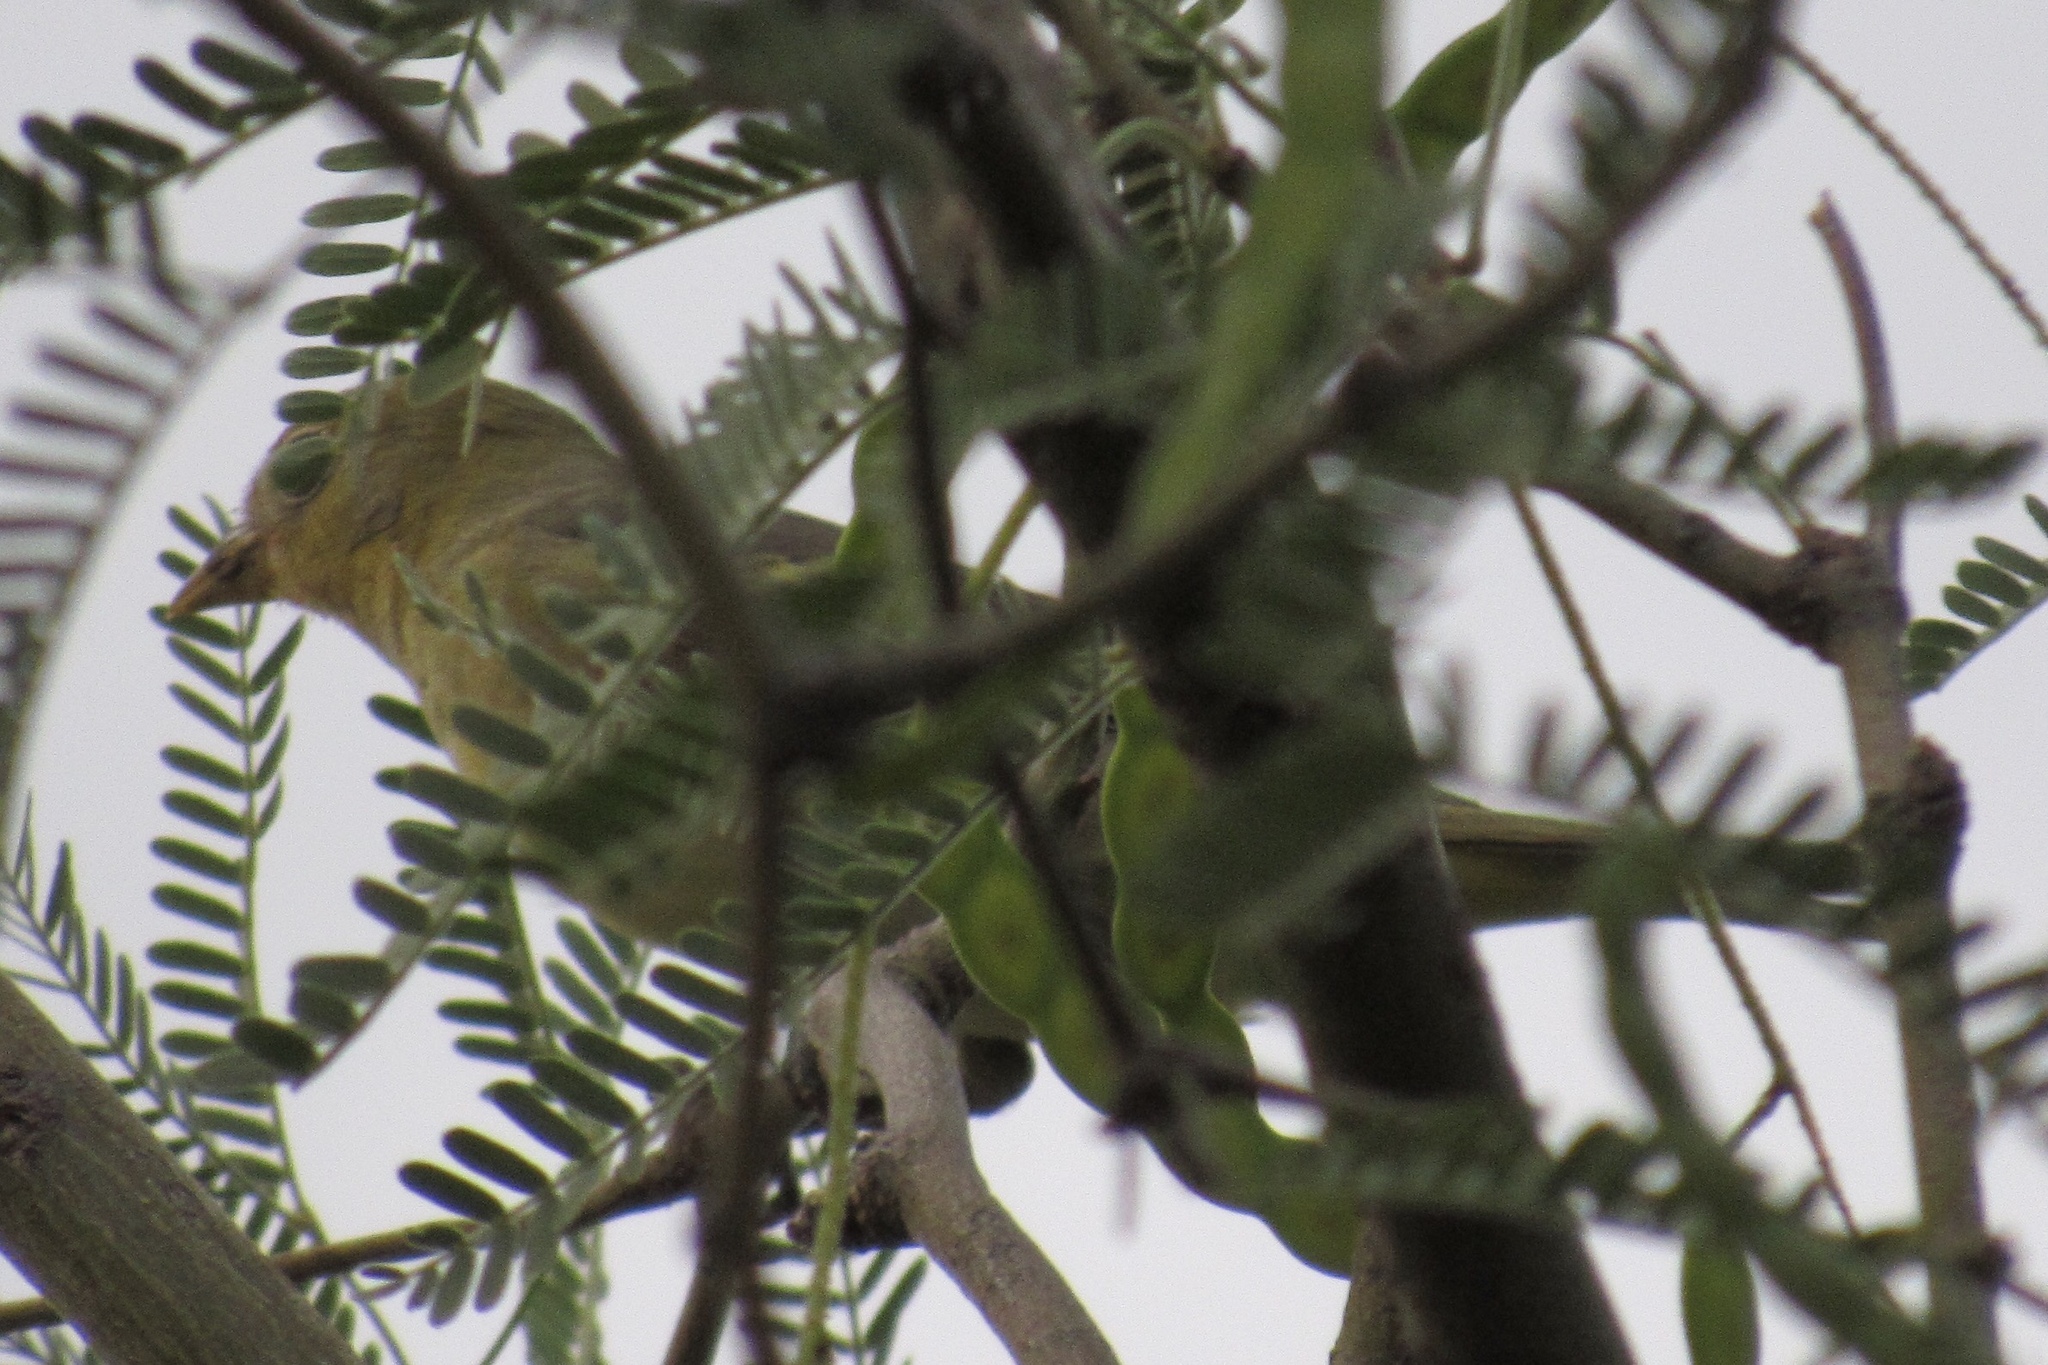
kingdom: Animalia
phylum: Chordata
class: Aves
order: Passeriformes
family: Cardinalidae
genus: Piranga
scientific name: Piranga ludoviciana
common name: Western tanager
